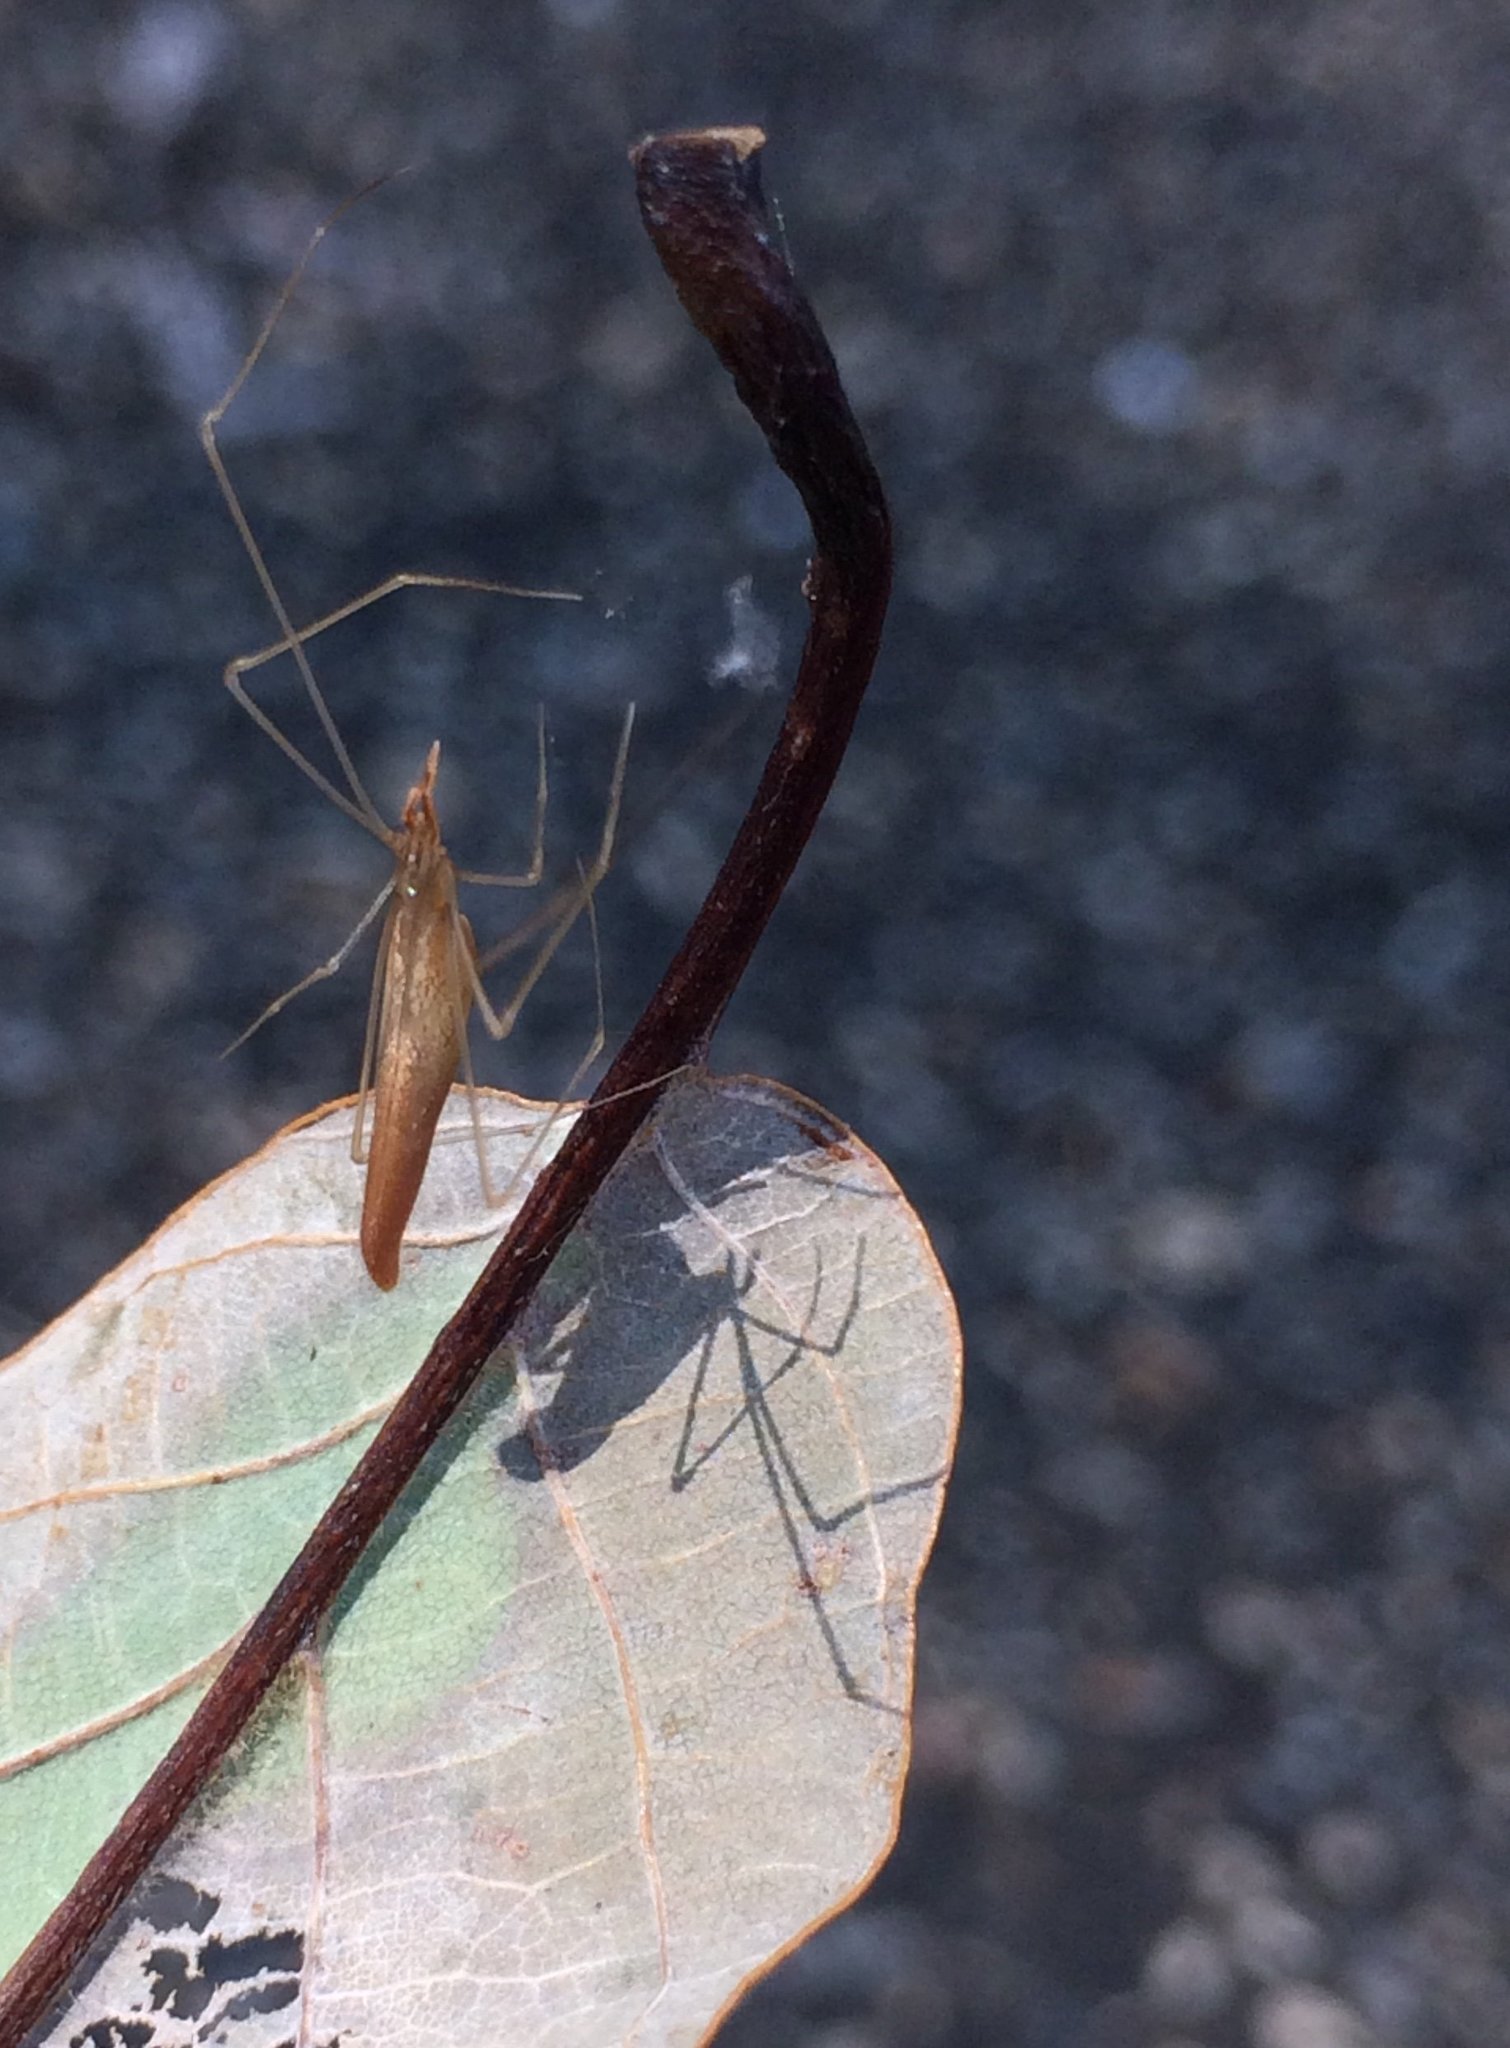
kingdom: Animalia
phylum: Arthropoda
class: Arachnida
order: Araneae
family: Theridiidae
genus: Rhomphaea
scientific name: Rhomphaea fictilium
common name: Lizard spider
